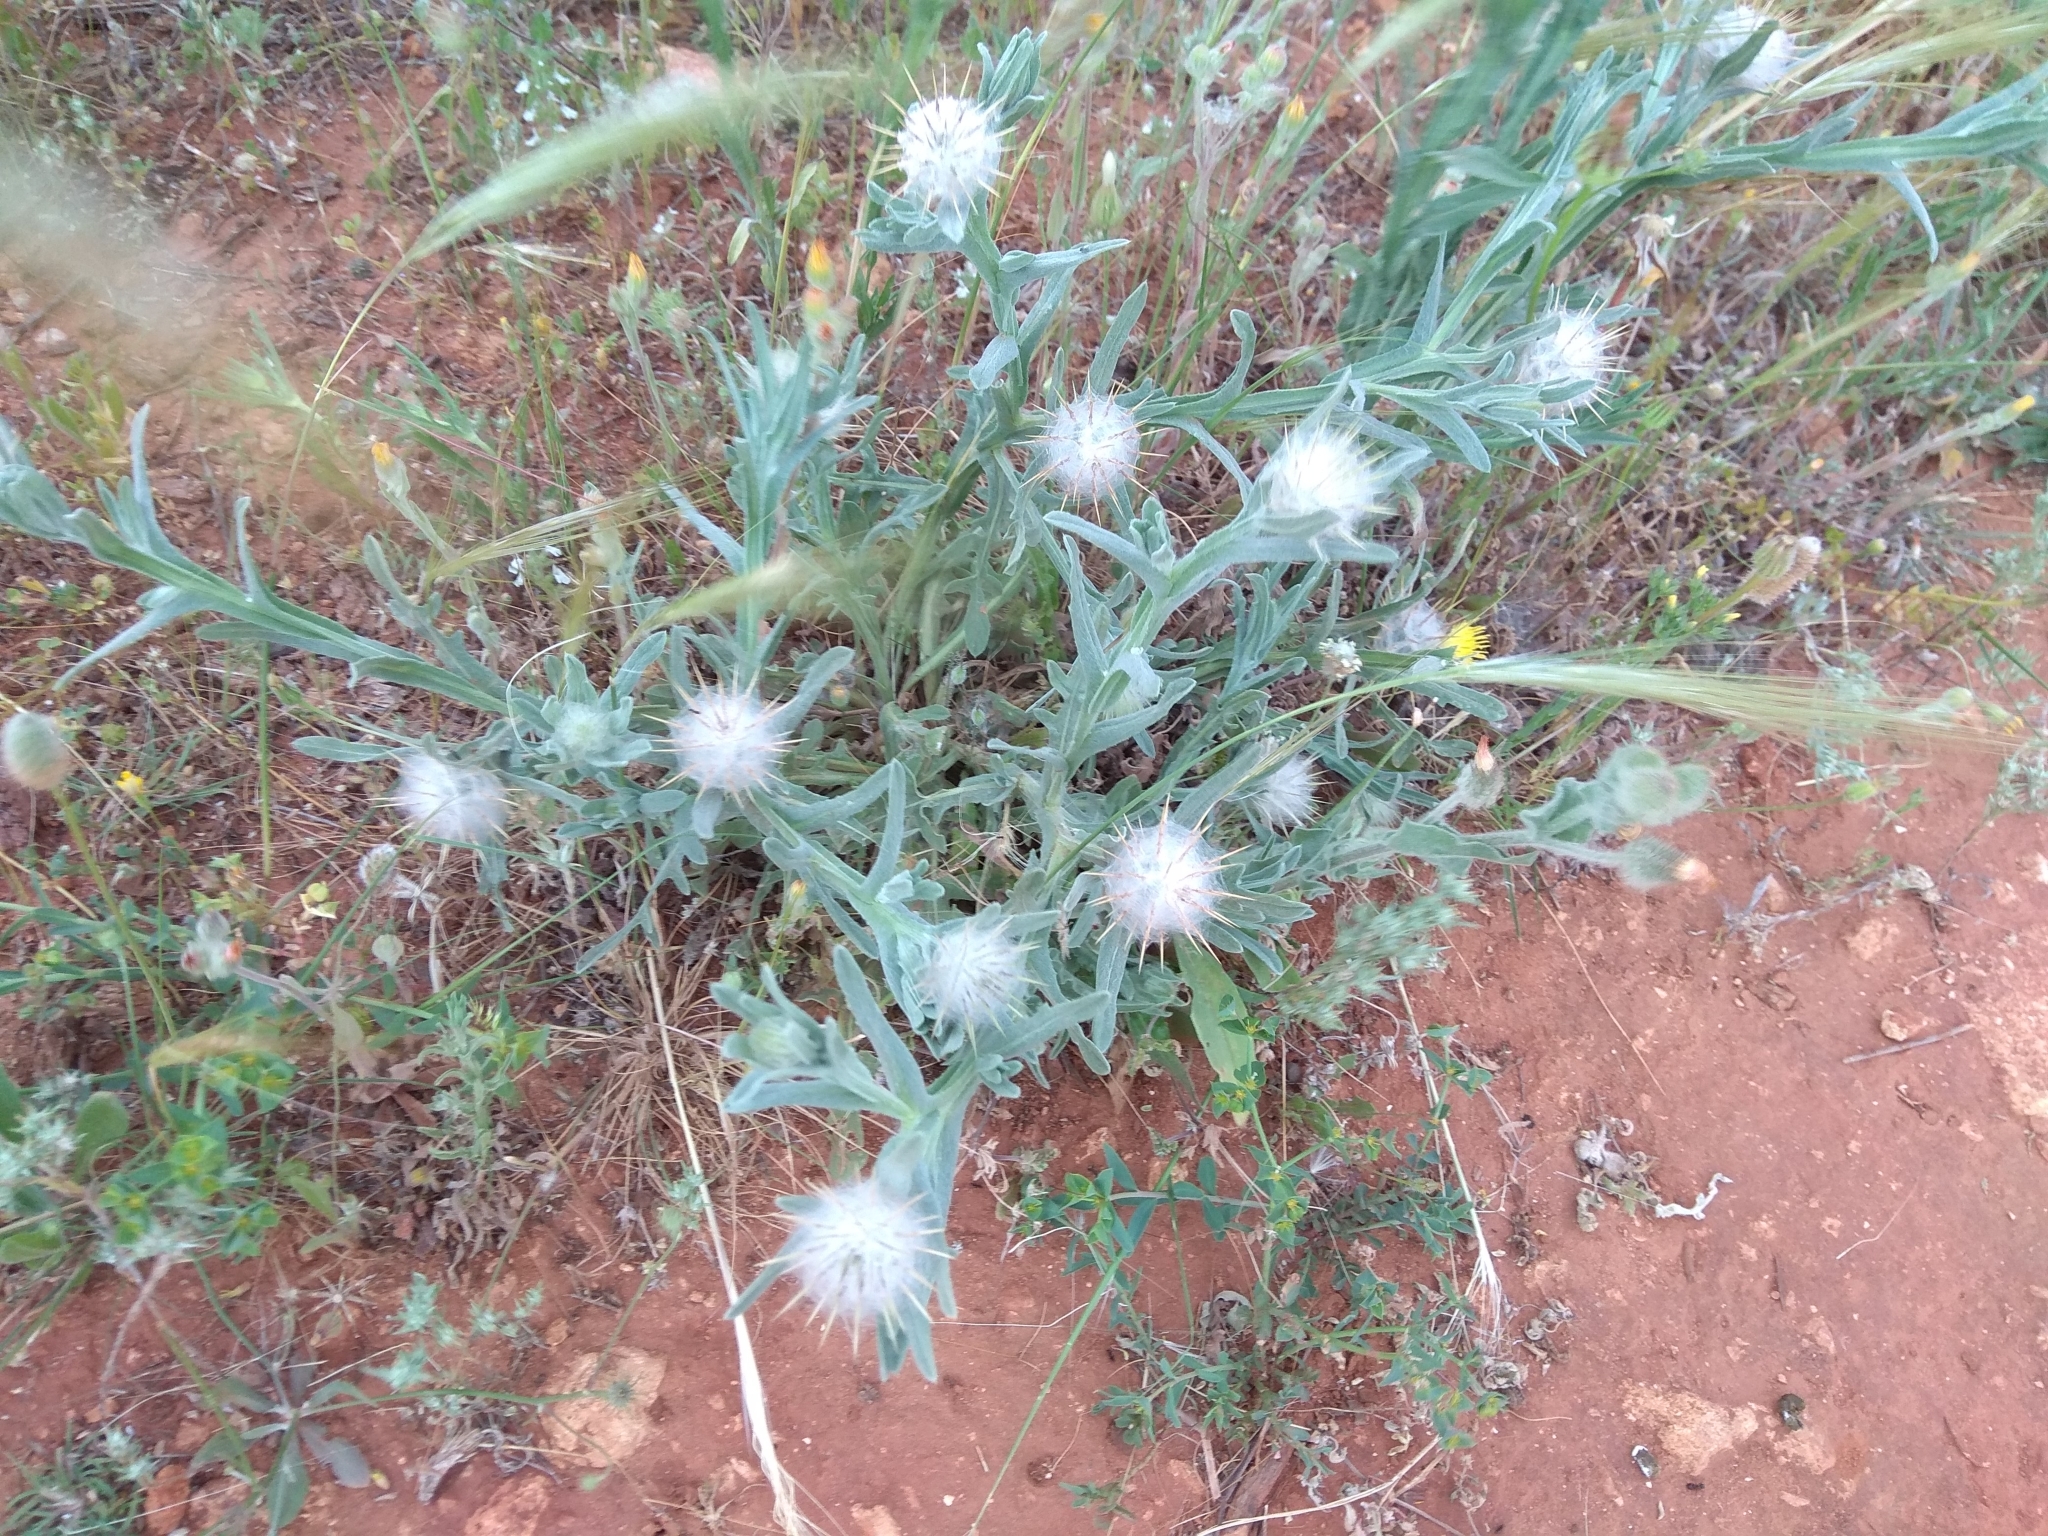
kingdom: Plantae
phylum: Tracheophyta
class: Magnoliopsida
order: Asterales
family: Asteraceae
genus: Centaurea
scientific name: Centaurea eriophora
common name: Wild sandheath
